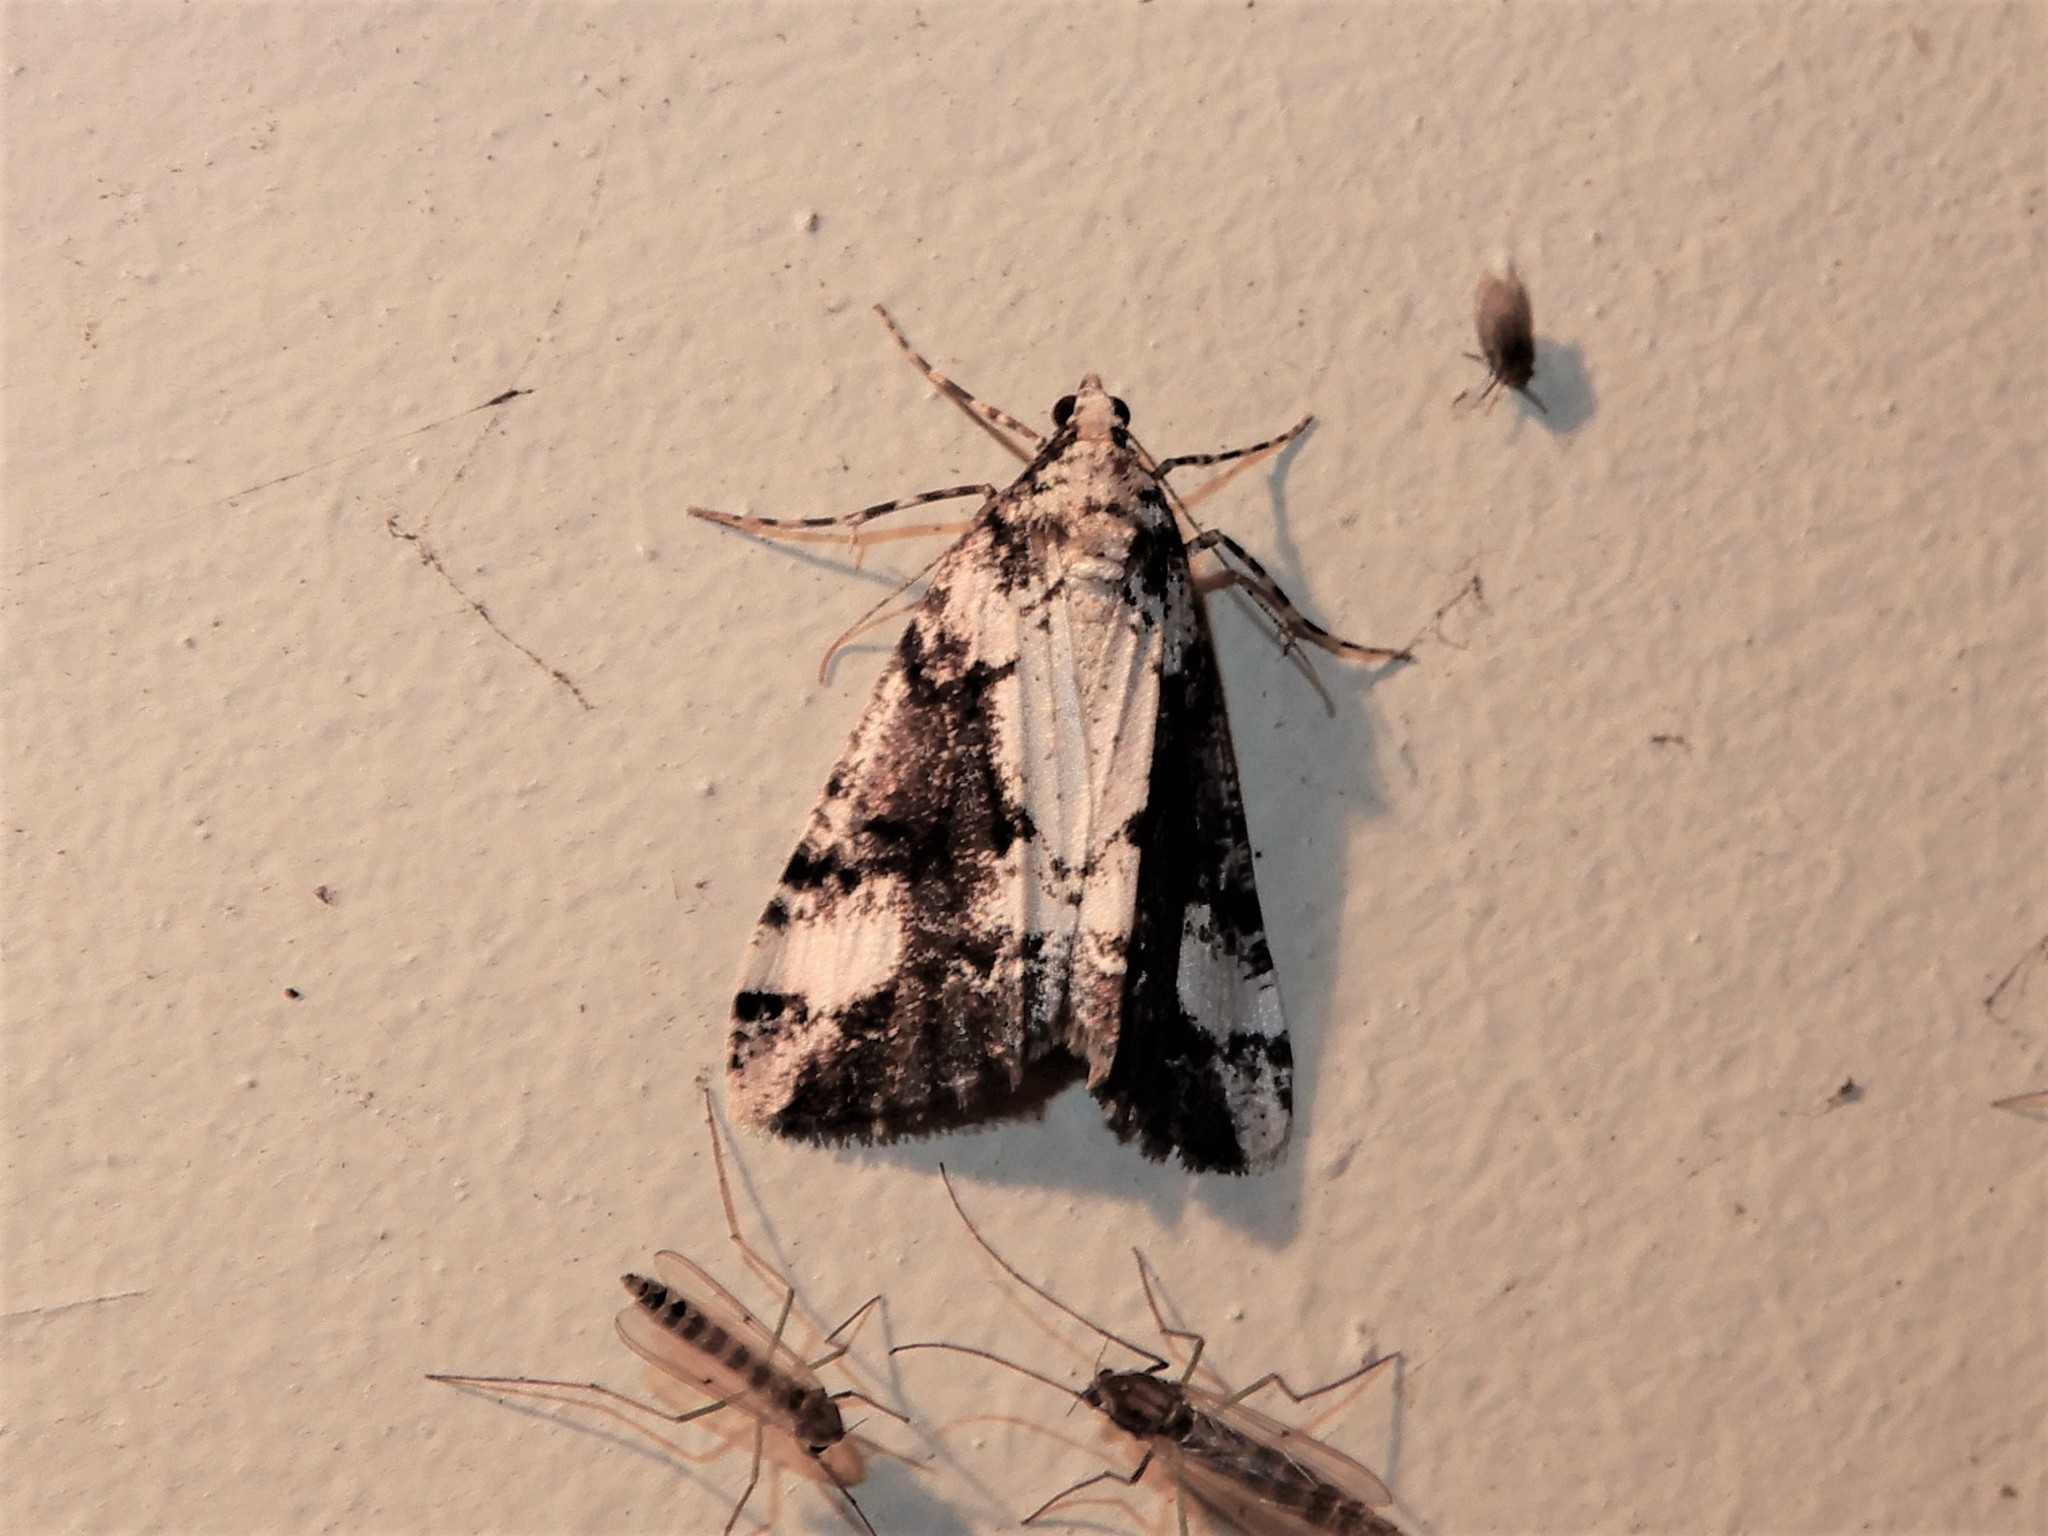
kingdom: Animalia
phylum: Arthropoda
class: Insecta
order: Lepidoptera
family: Geometridae
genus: Pseudocoremia
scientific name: Pseudocoremia leucelaea
